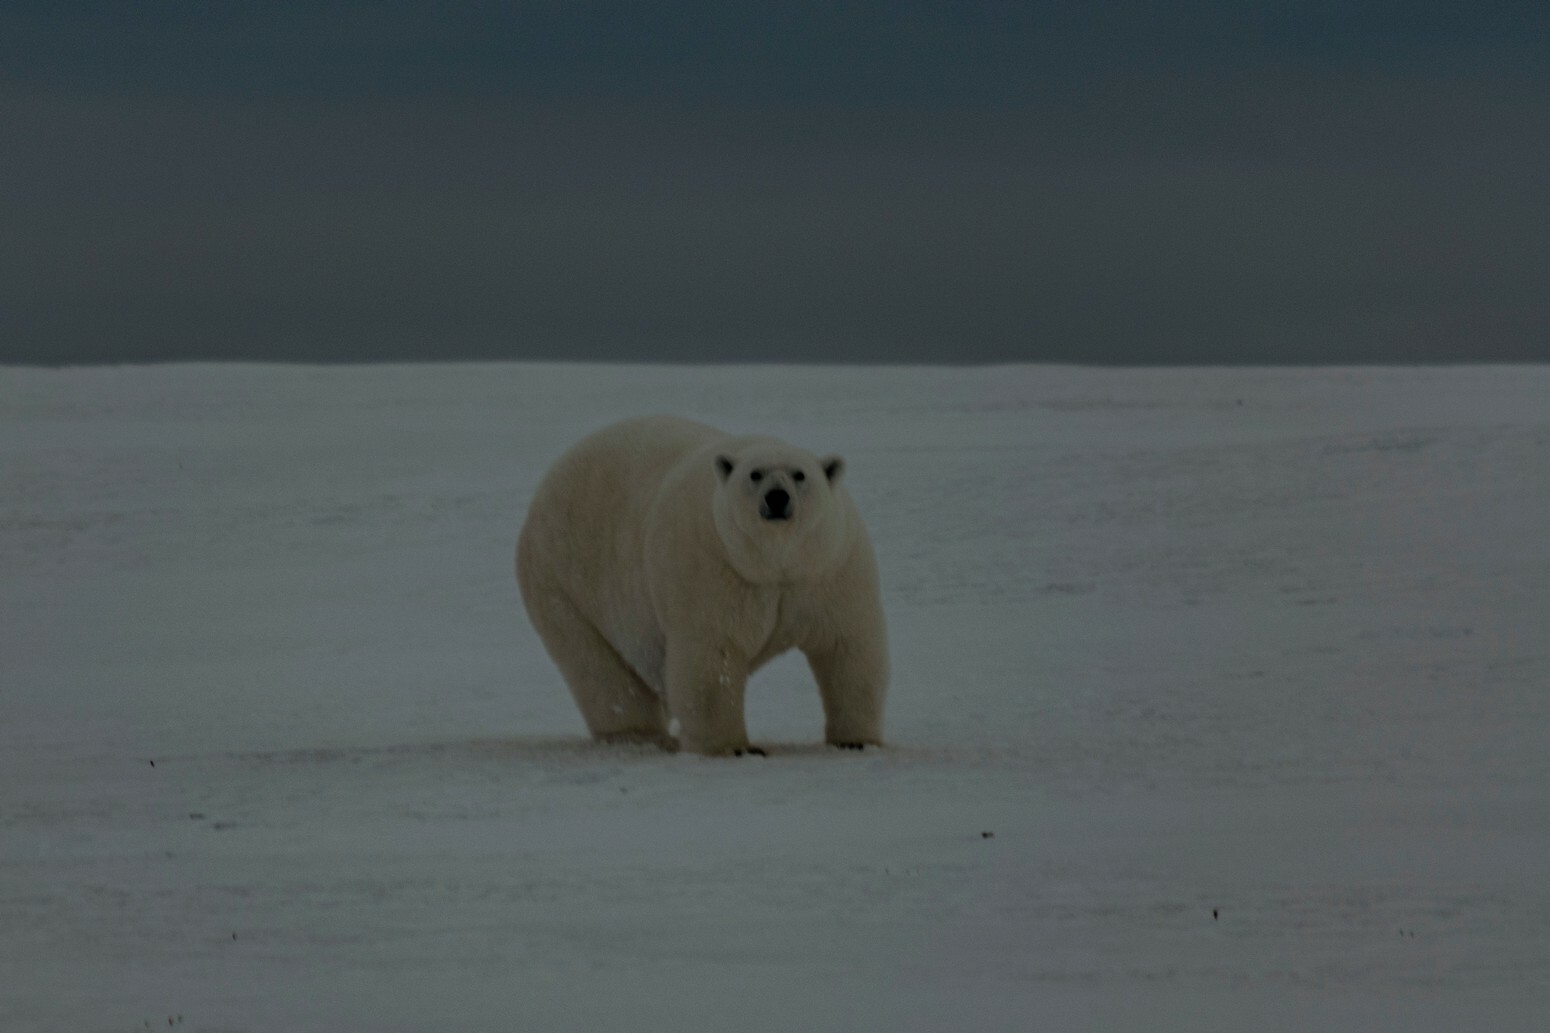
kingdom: Animalia
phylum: Chordata
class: Mammalia
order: Carnivora
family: Ursidae
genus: Ursus
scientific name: Ursus maritimus
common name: Polar bear
